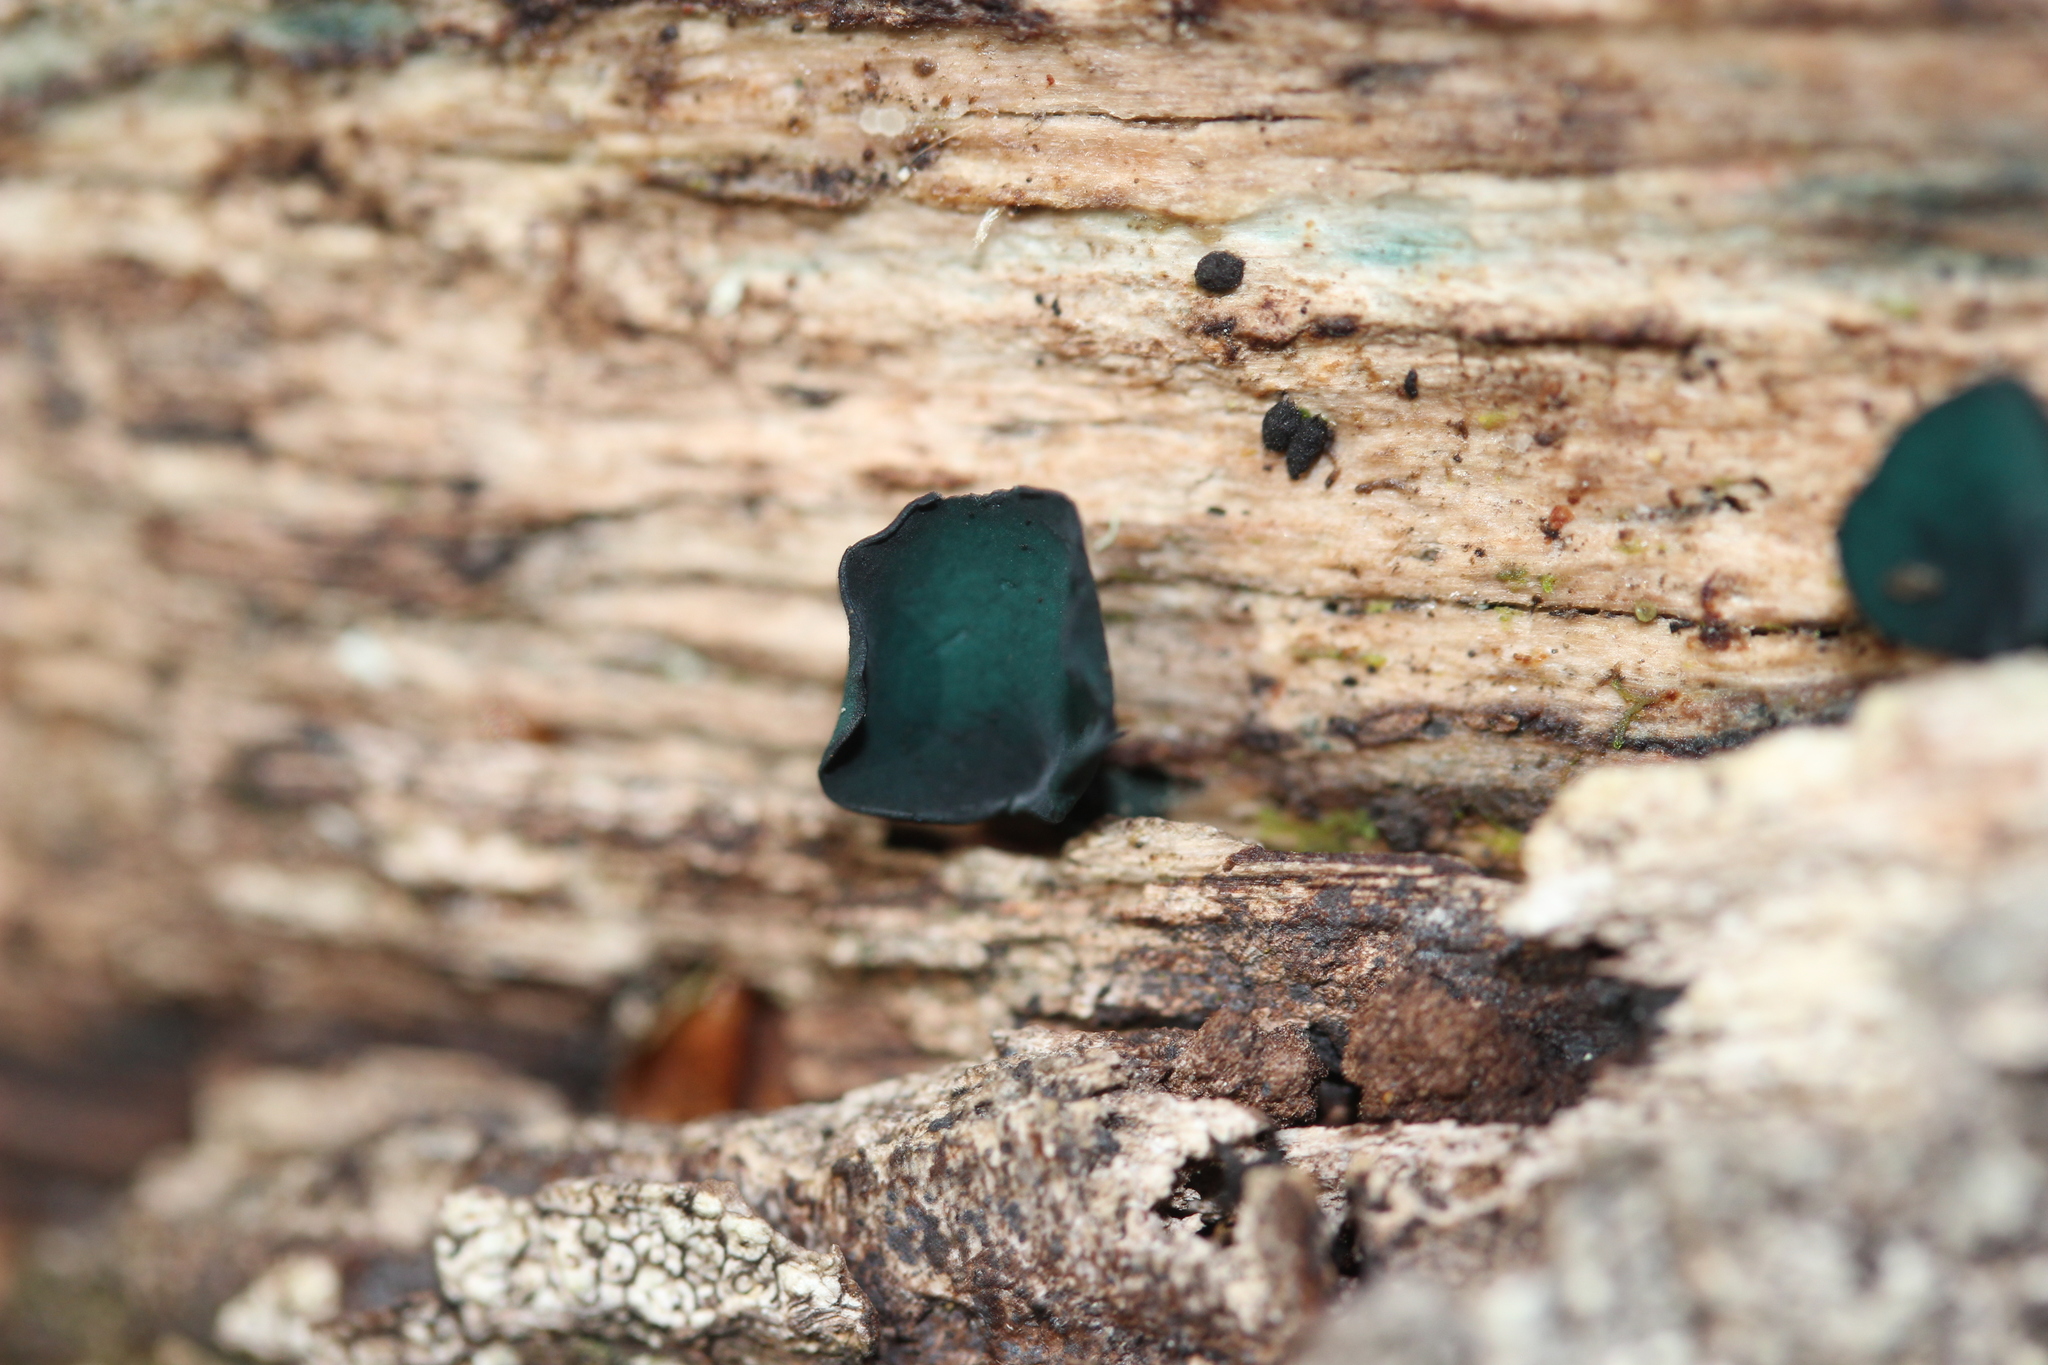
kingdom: Fungi
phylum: Ascomycota
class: Leotiomycetes
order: Helotiales
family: Chlorociboriaceae
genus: Chlorociboria
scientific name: Chlorociboria
